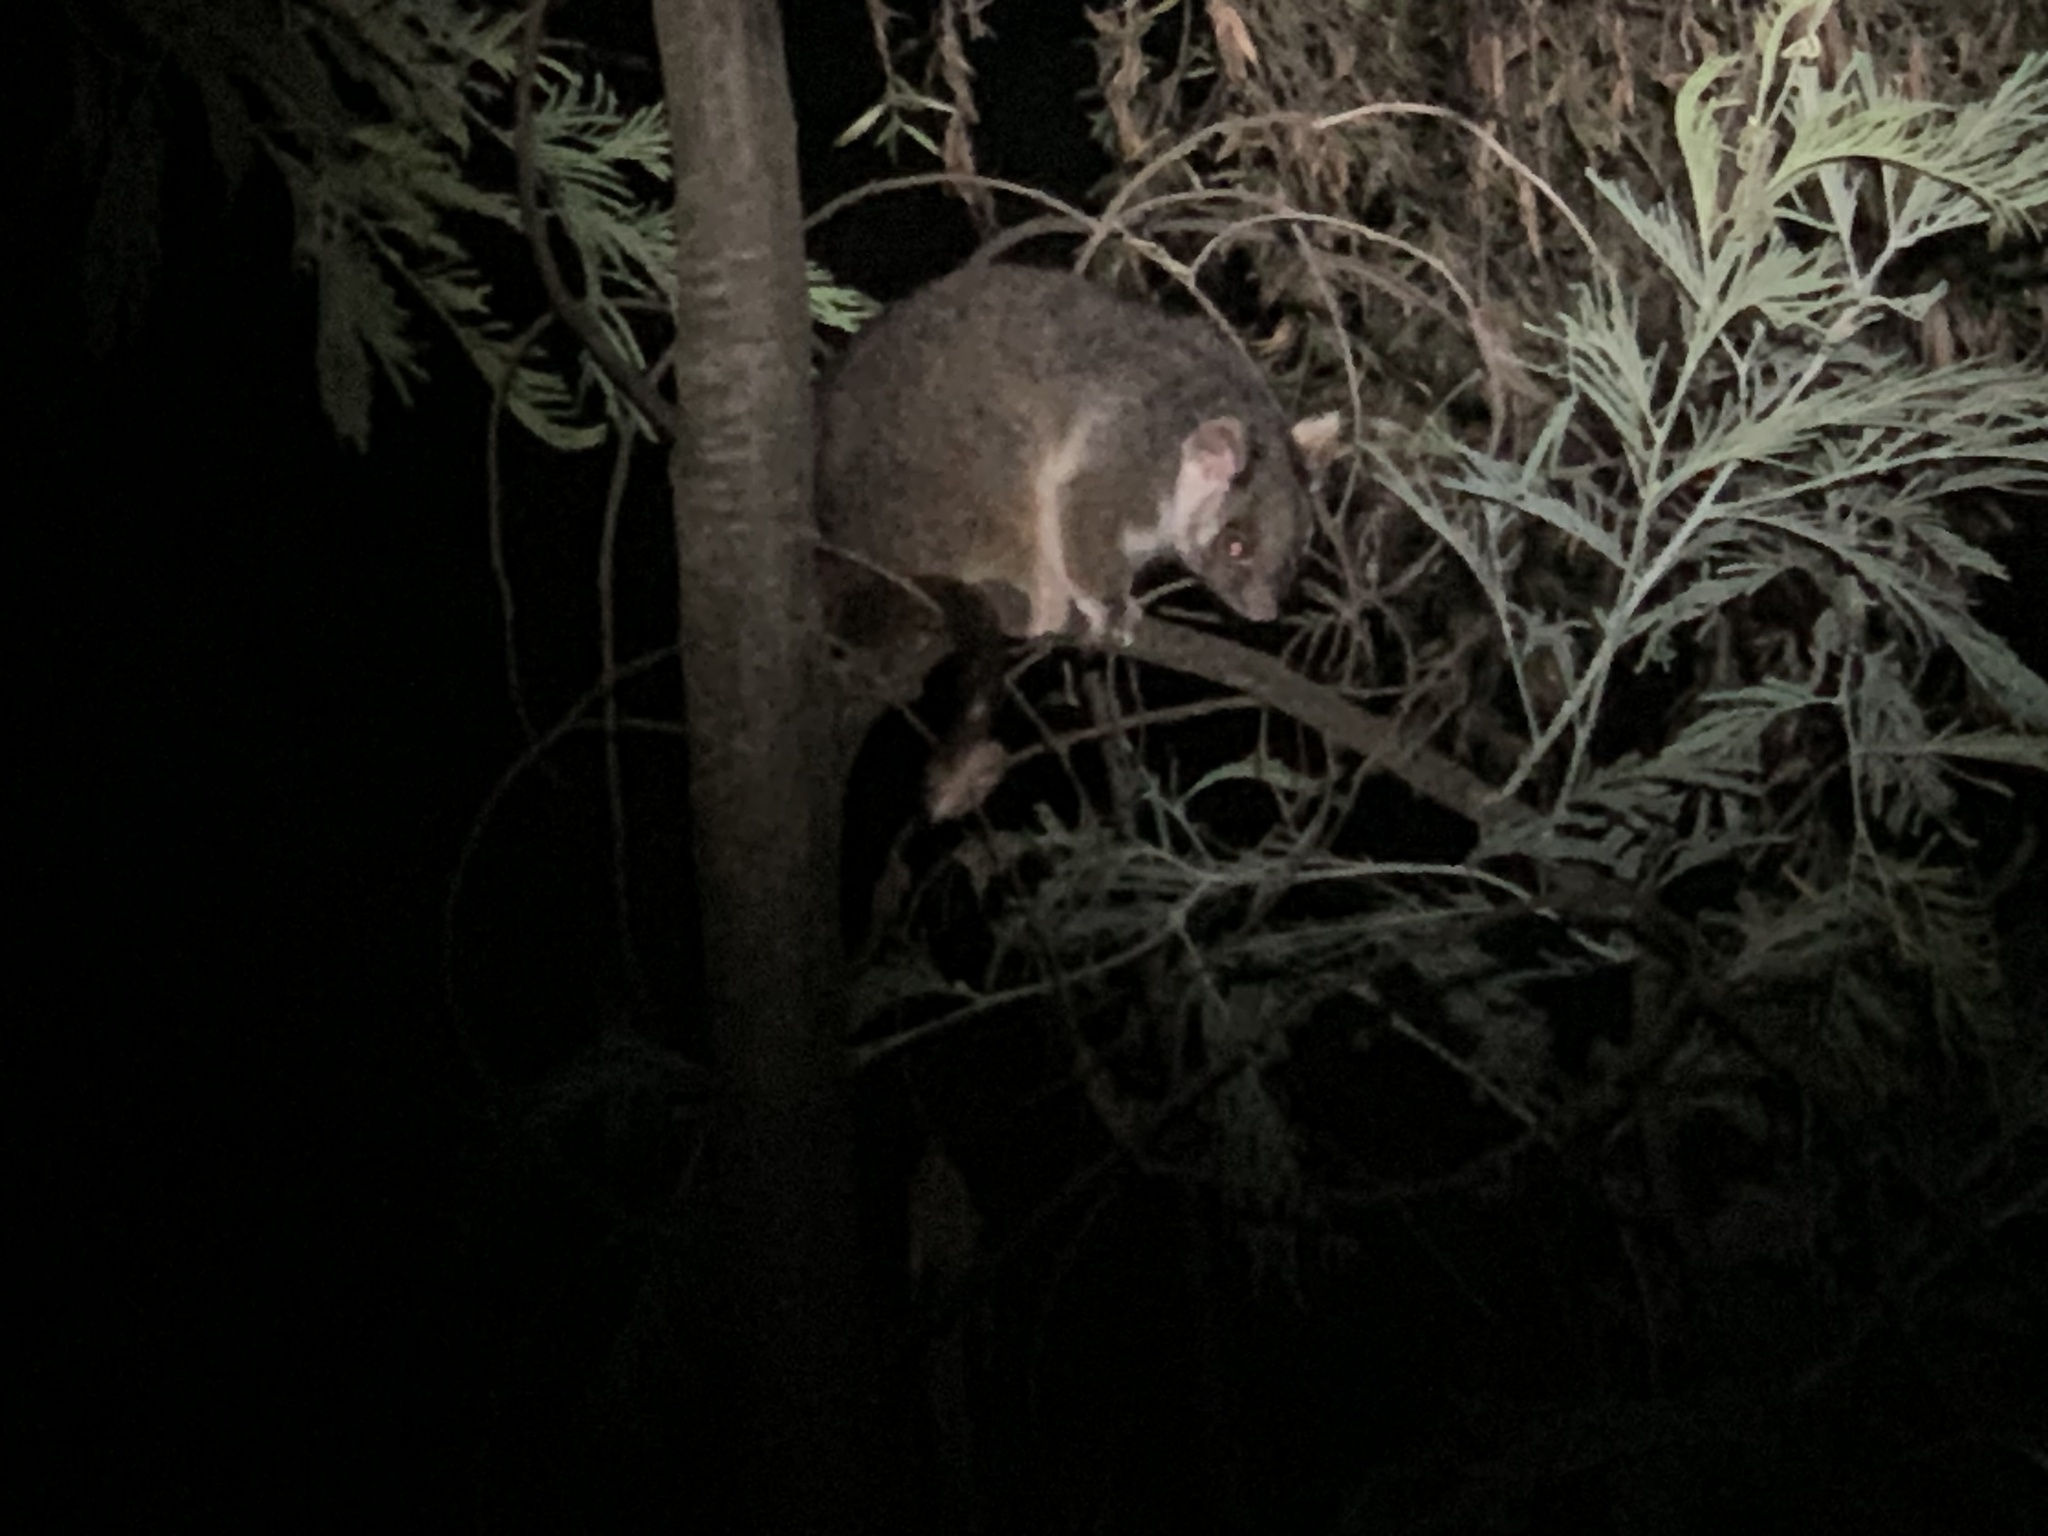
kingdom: Animalia
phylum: Chordata
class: Mammalia
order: Diprotodontia
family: Pseudocheiridae
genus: Pseudocheirus
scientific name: Pseudocheirus peregrinus
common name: Common ringtail possum
